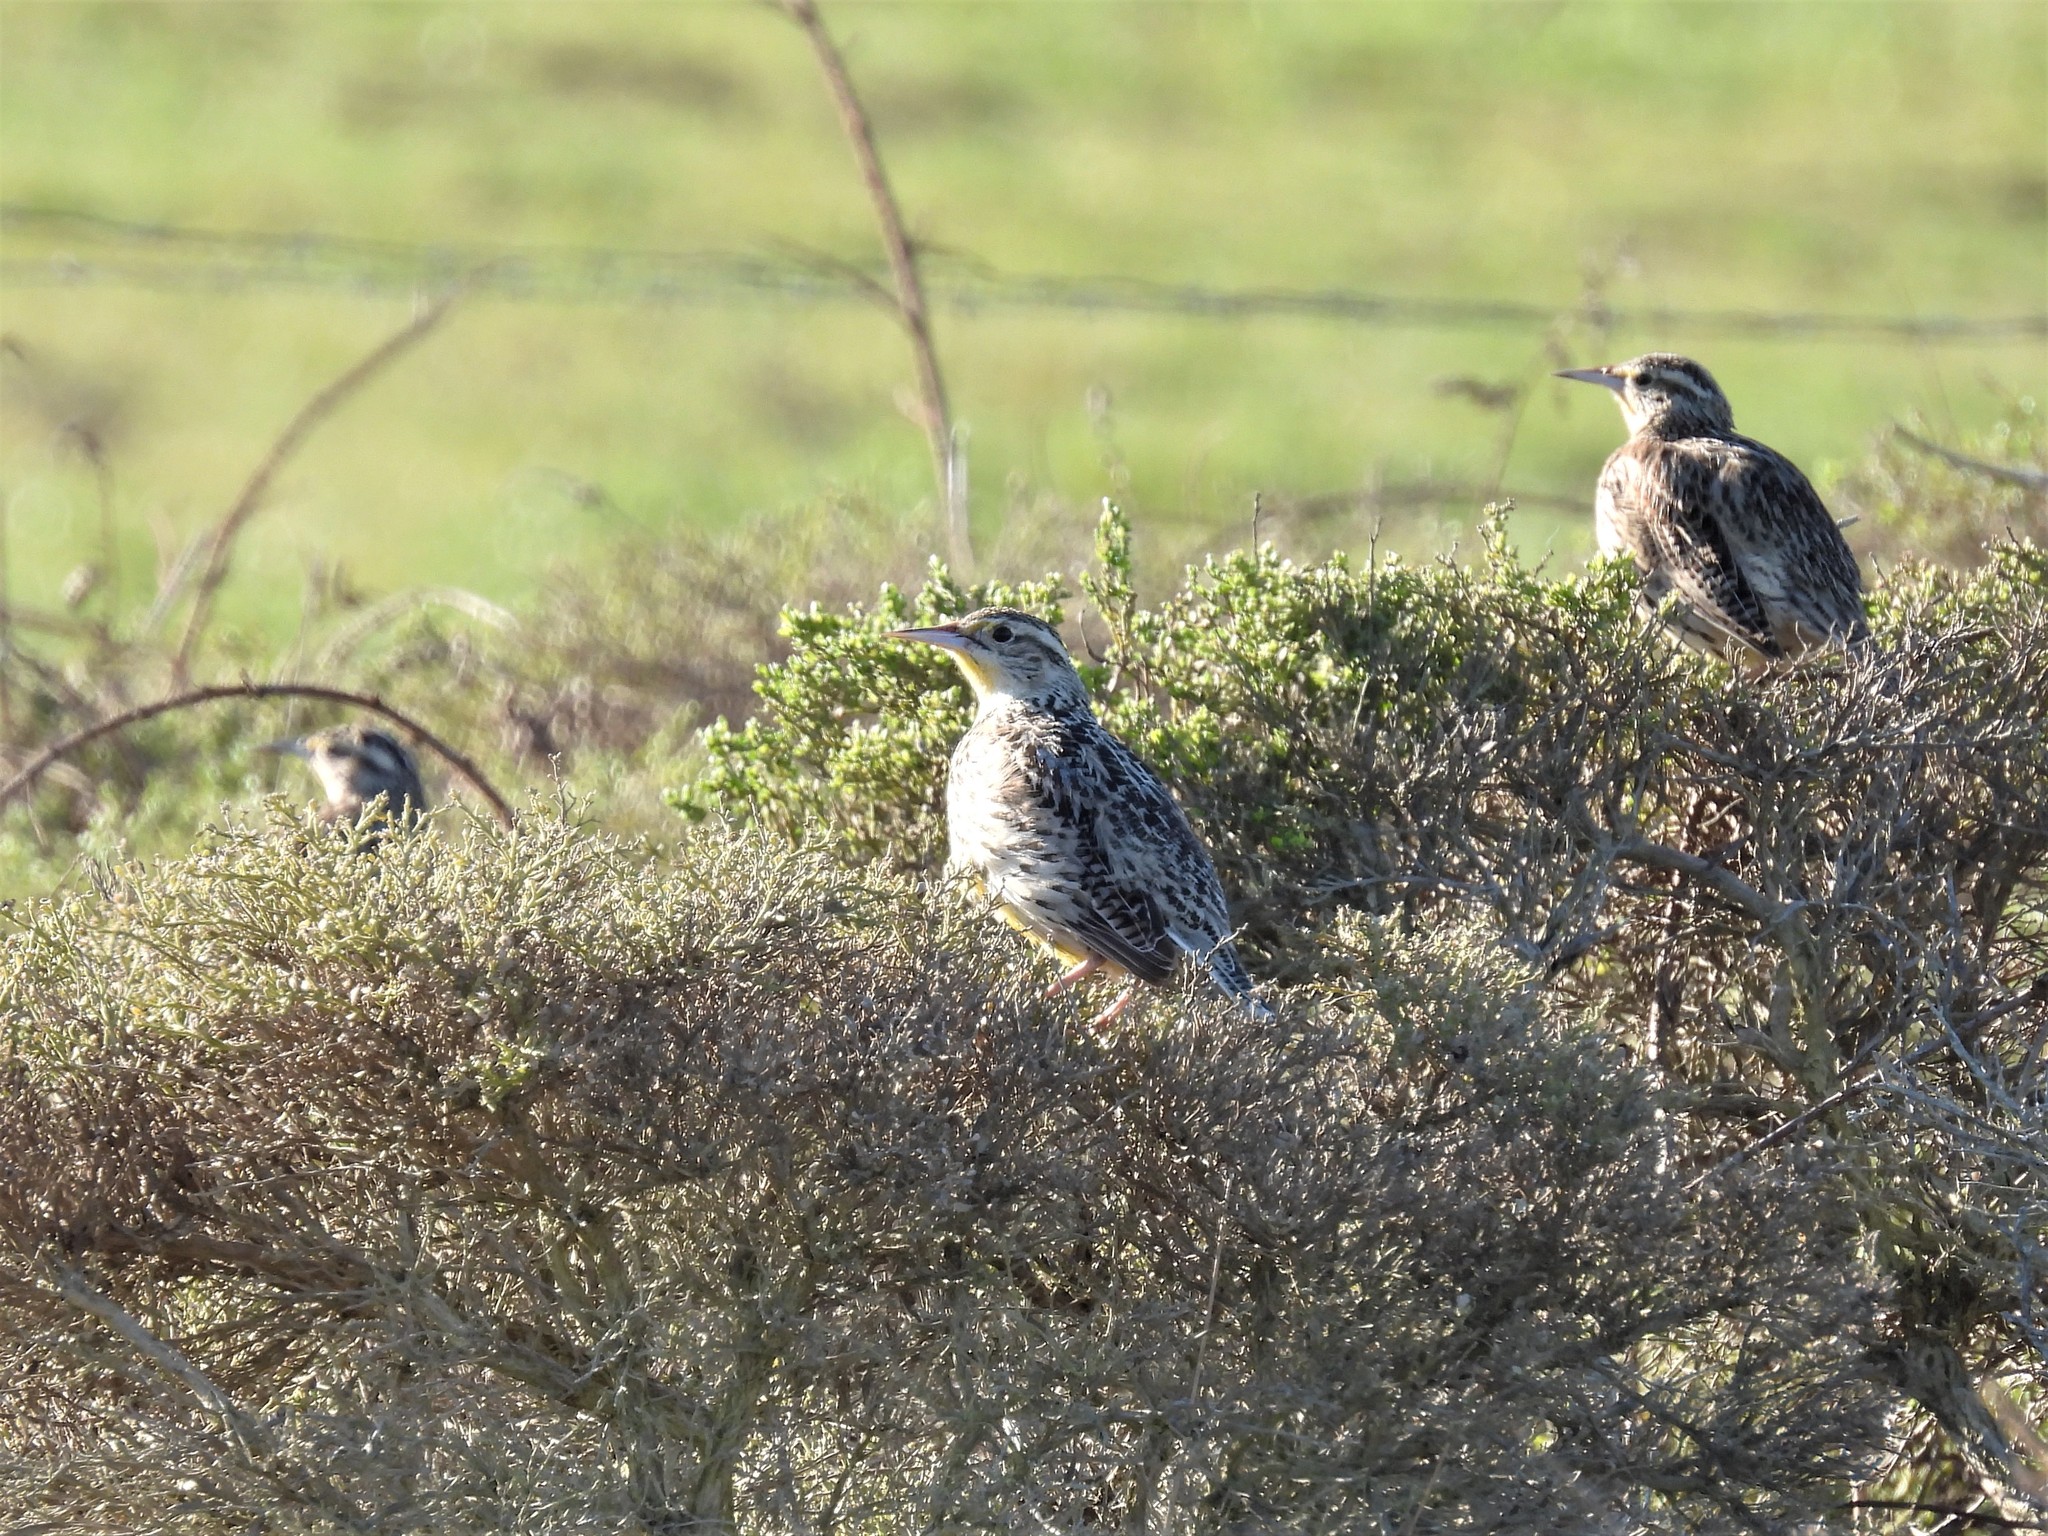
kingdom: Animalia
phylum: Chordata
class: Aves
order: Passeriformes
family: Icteridae
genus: Sturnella
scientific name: Sturnella neglecta
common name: Western meadowlark
